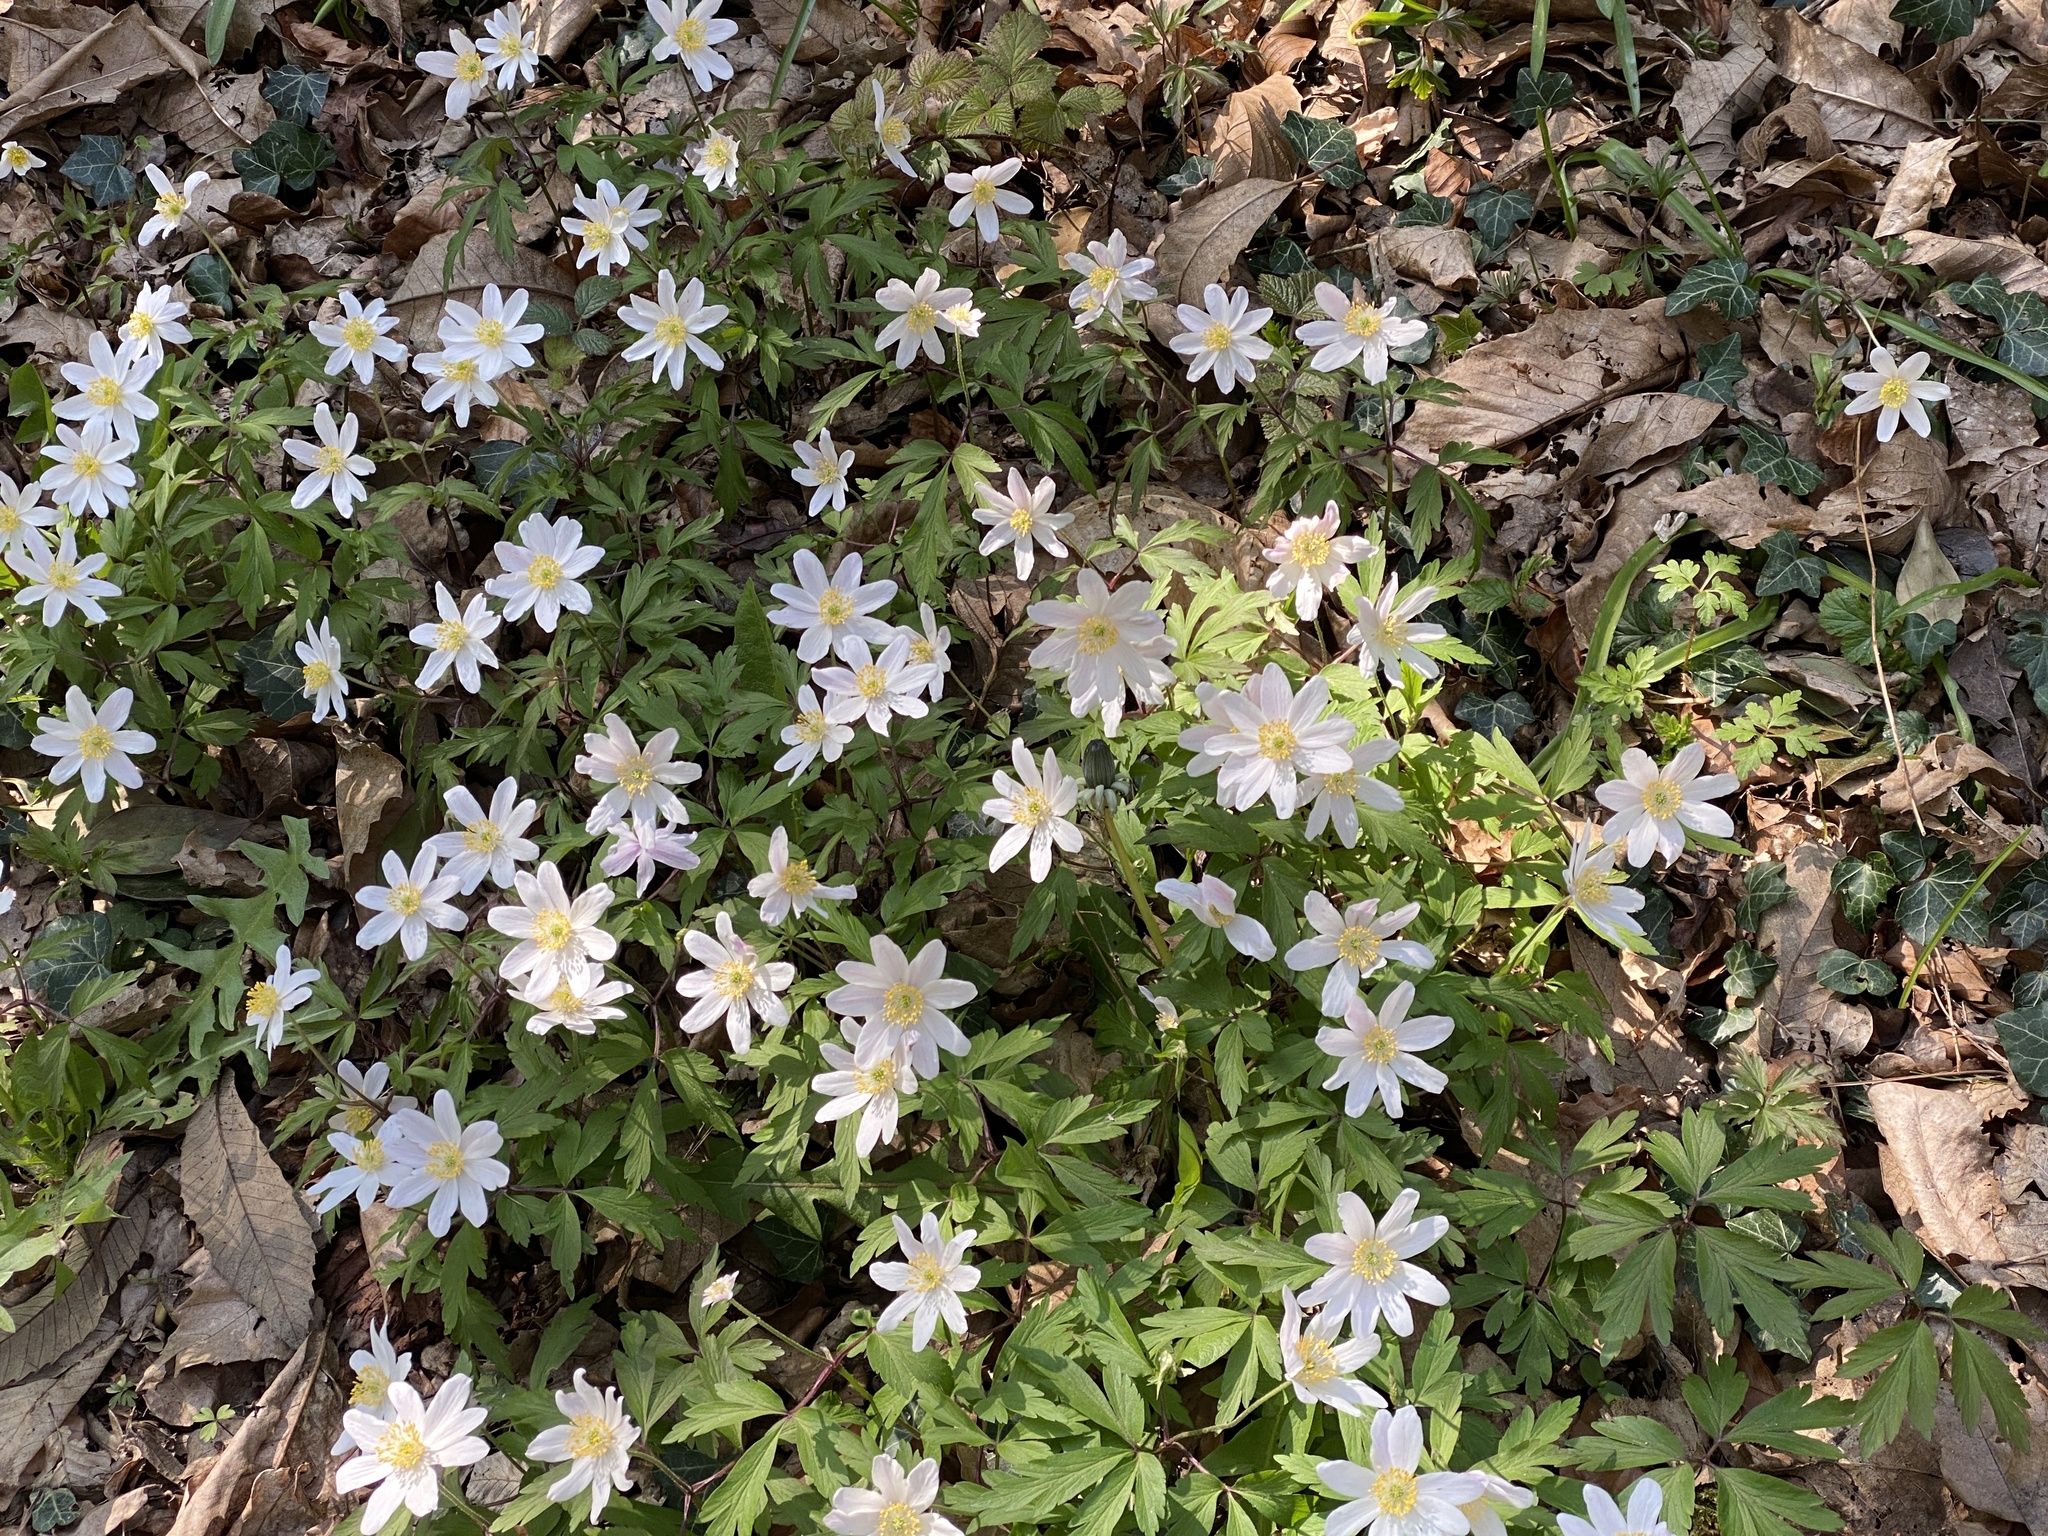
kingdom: Plantae
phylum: Tracheophyta
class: Magnoliopsida
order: Ranunculales
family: Ranunculaceae
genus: Anemone
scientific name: Anemone nemorosa
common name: Wood anemone
